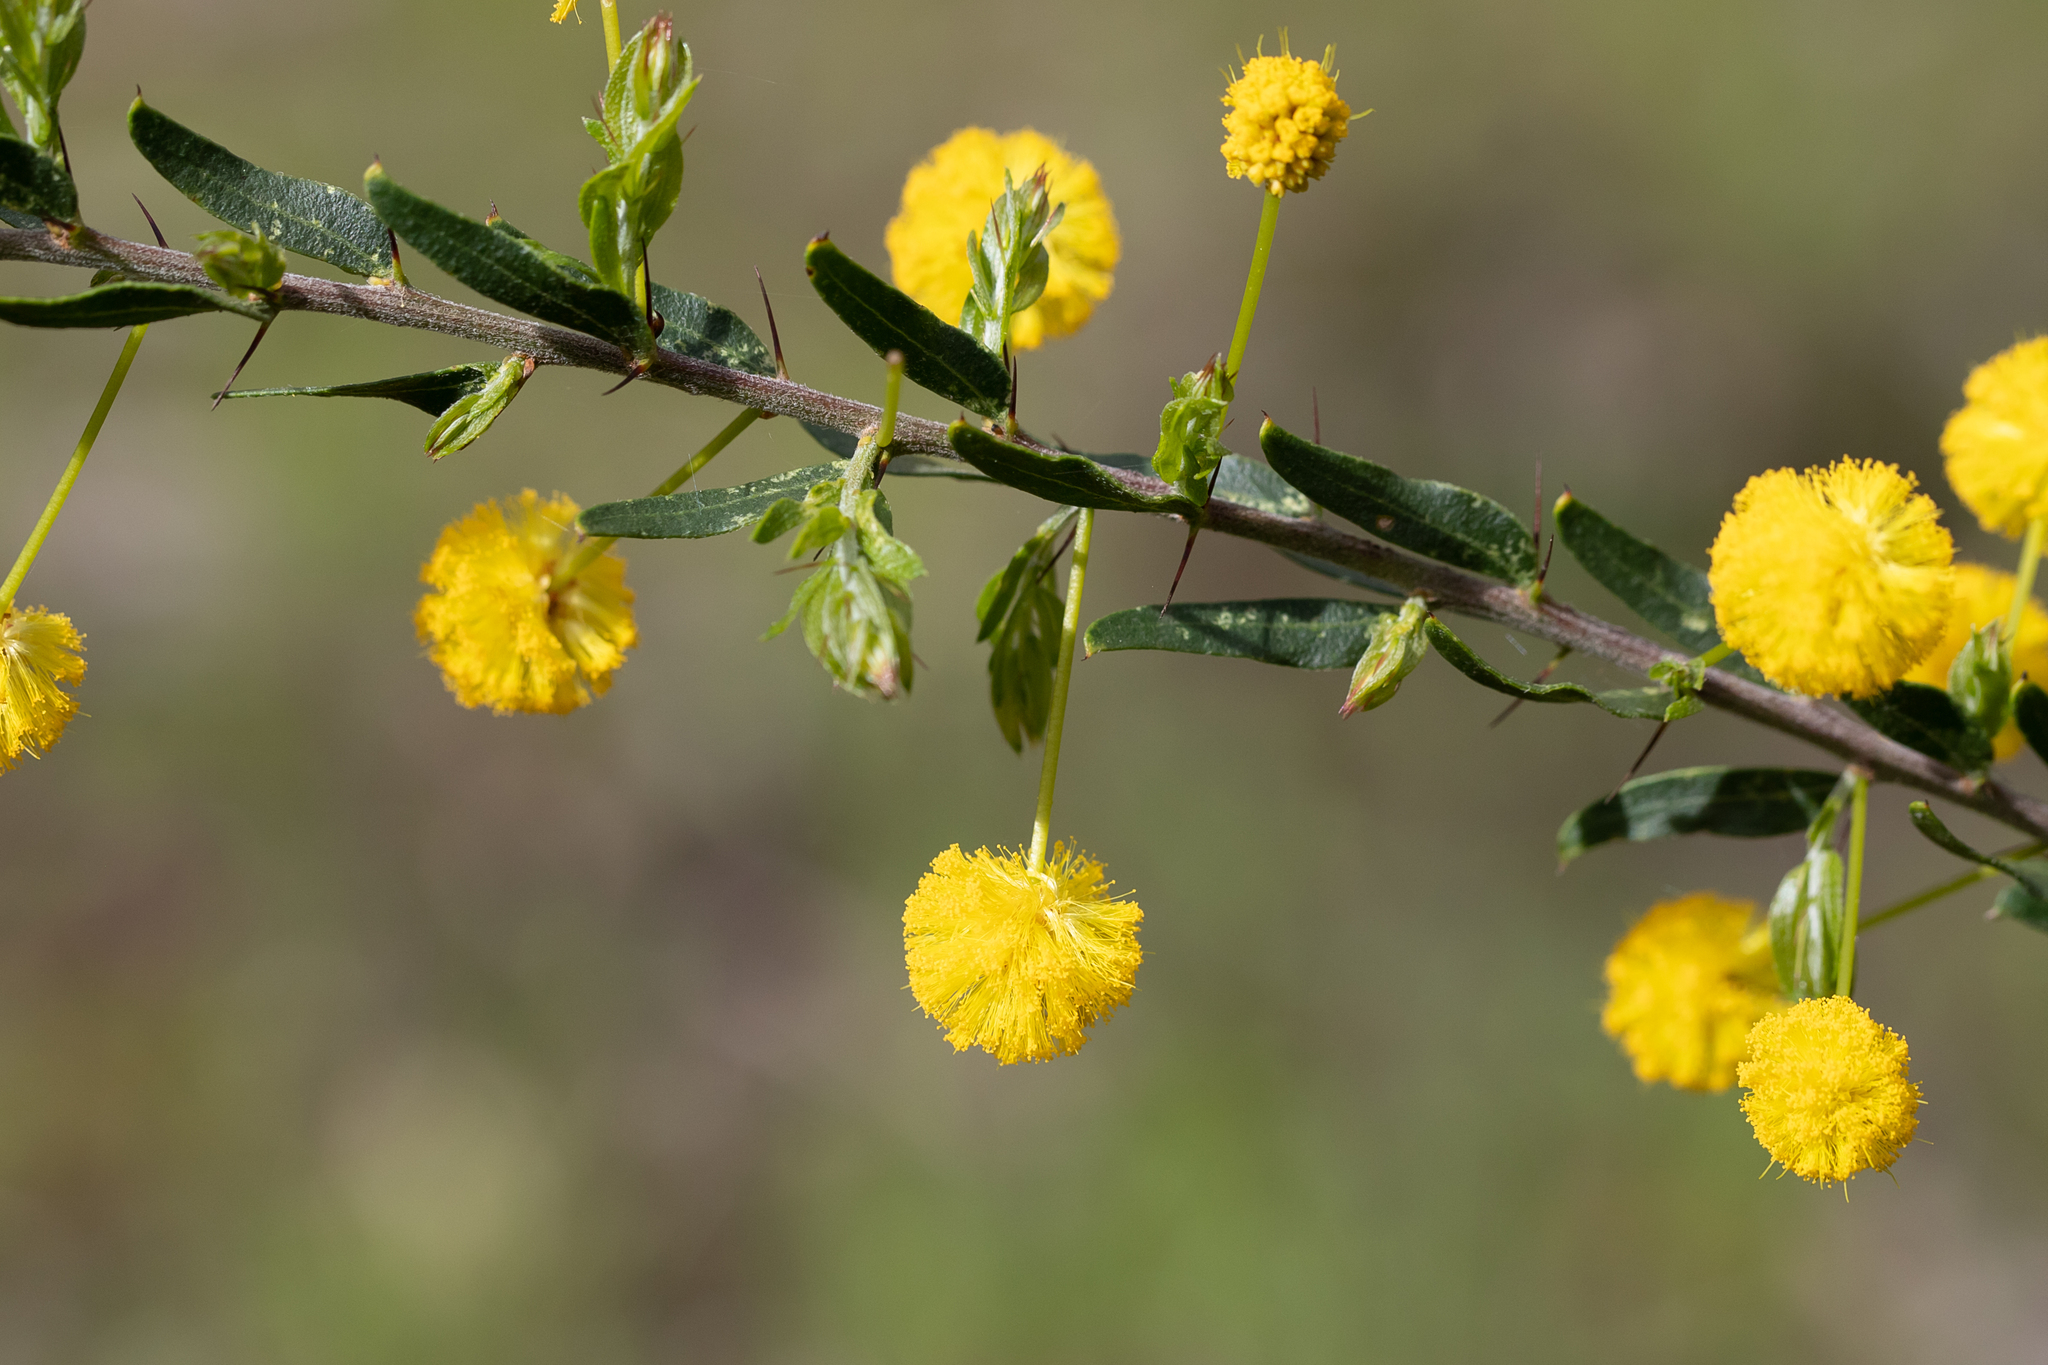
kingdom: Plantae
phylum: Tracheophyta
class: Magnoliopsida
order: Fabales
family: Fabaceae
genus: Acacia
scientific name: Acacia paradoxa
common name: Paradox acacia
